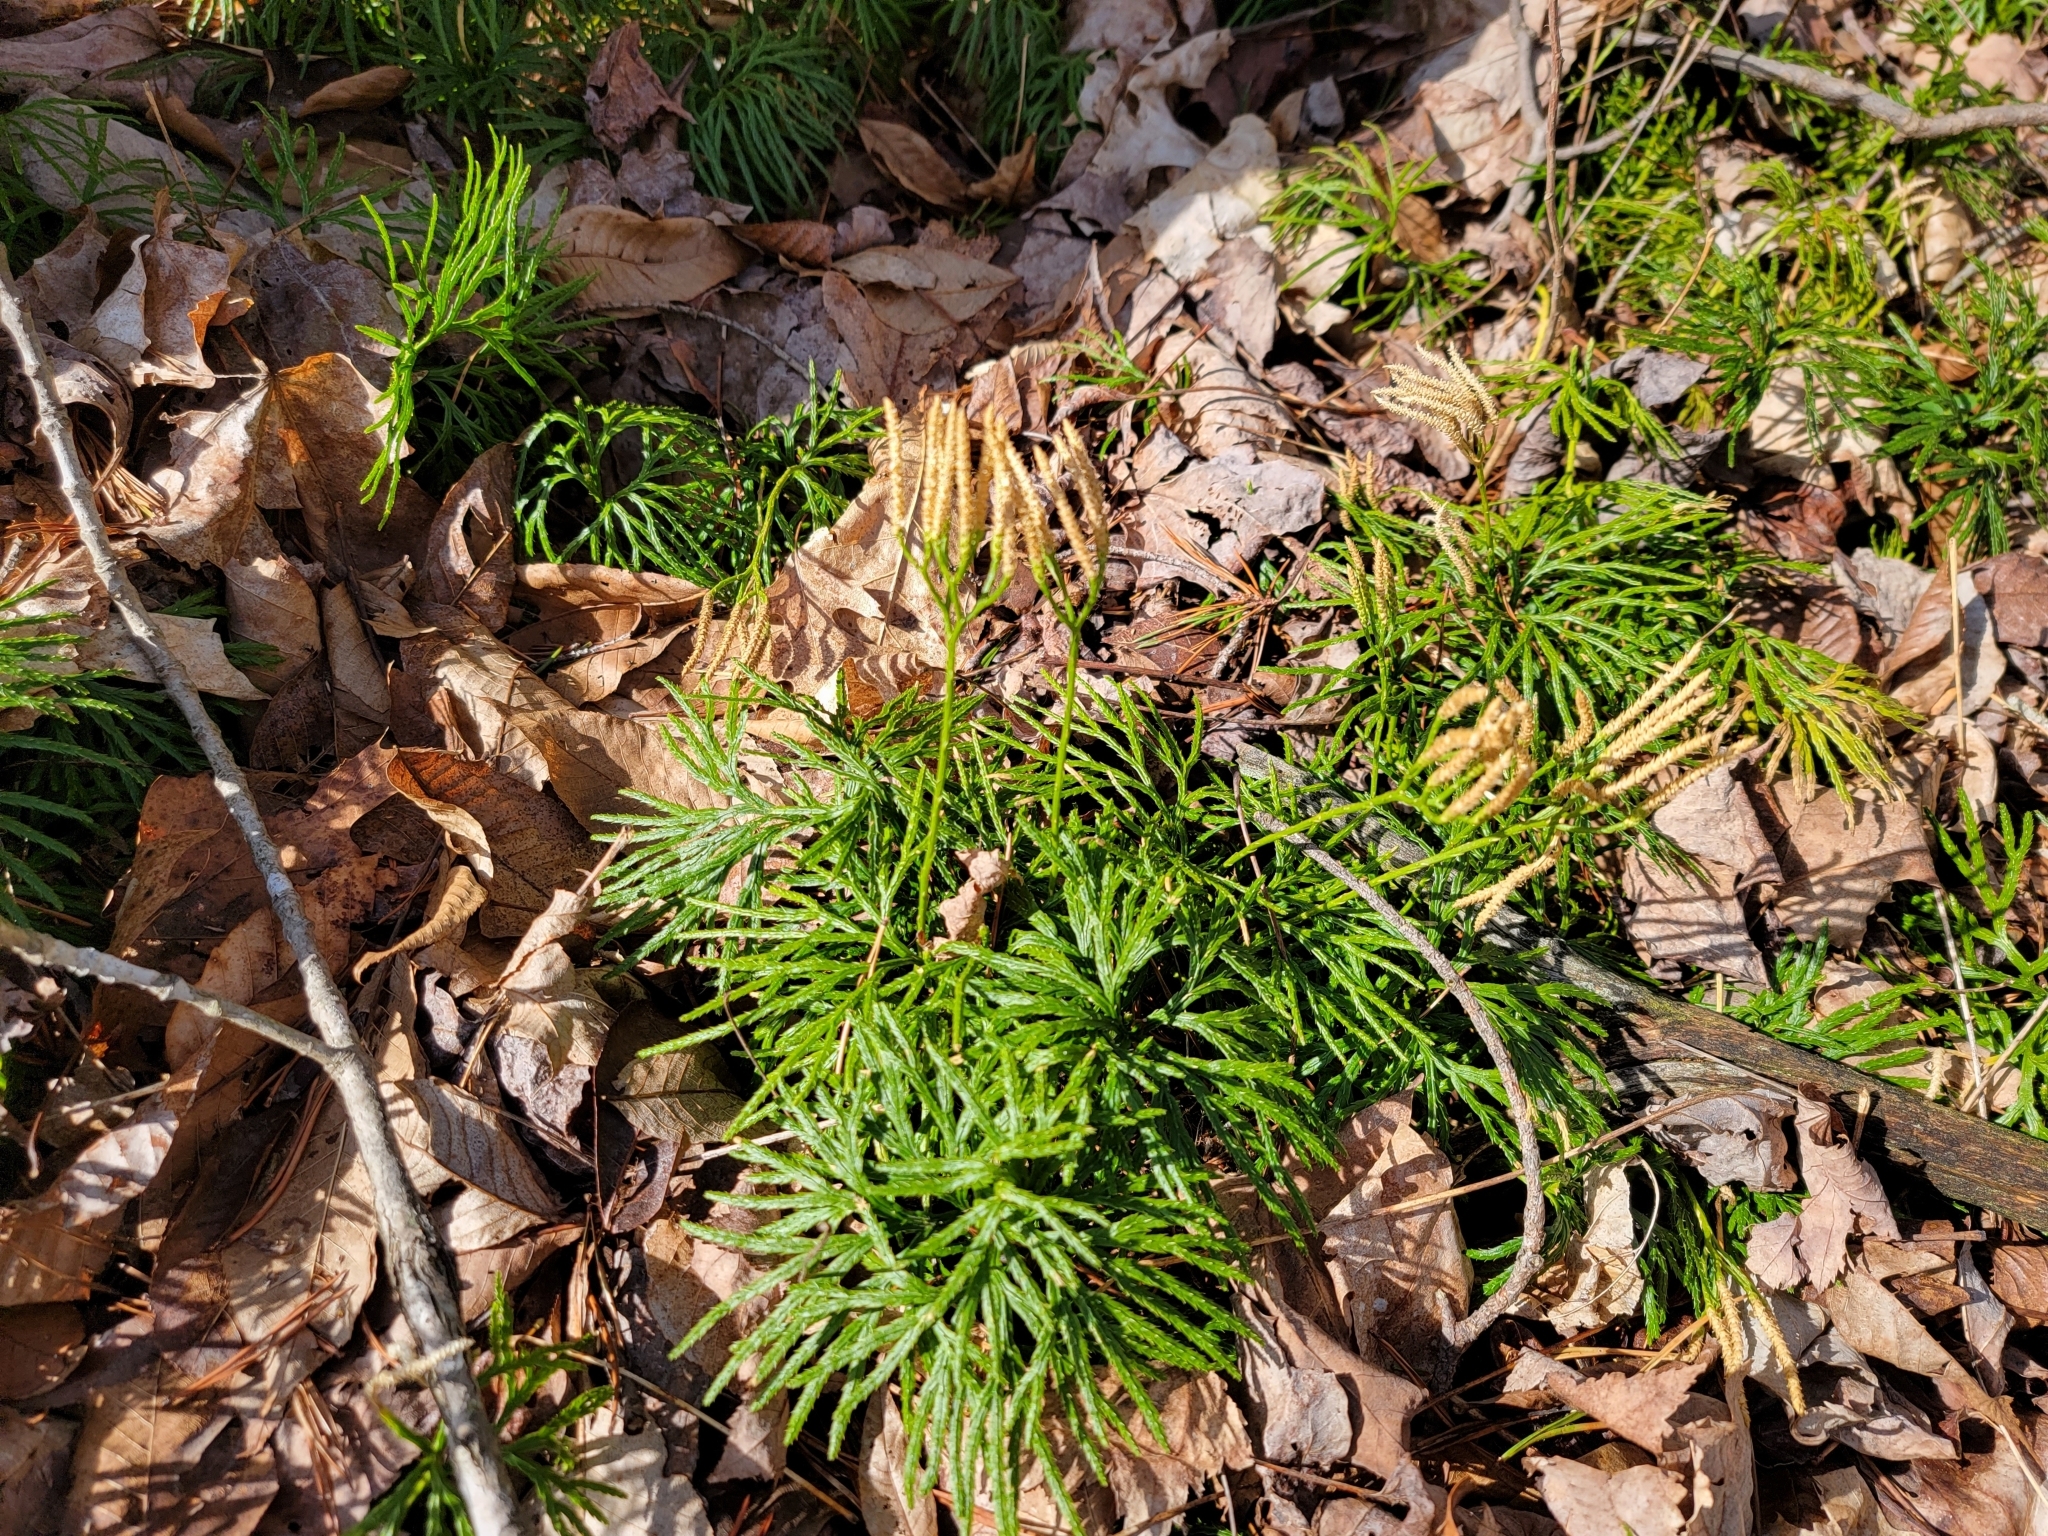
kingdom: Plantae
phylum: Tracheophyta
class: Lycopodiopsida
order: Lycopodiales
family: Lycopodiaceae
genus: Diphasiastrum
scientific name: Diphasiastrum digitatum
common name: Southern running-pine
